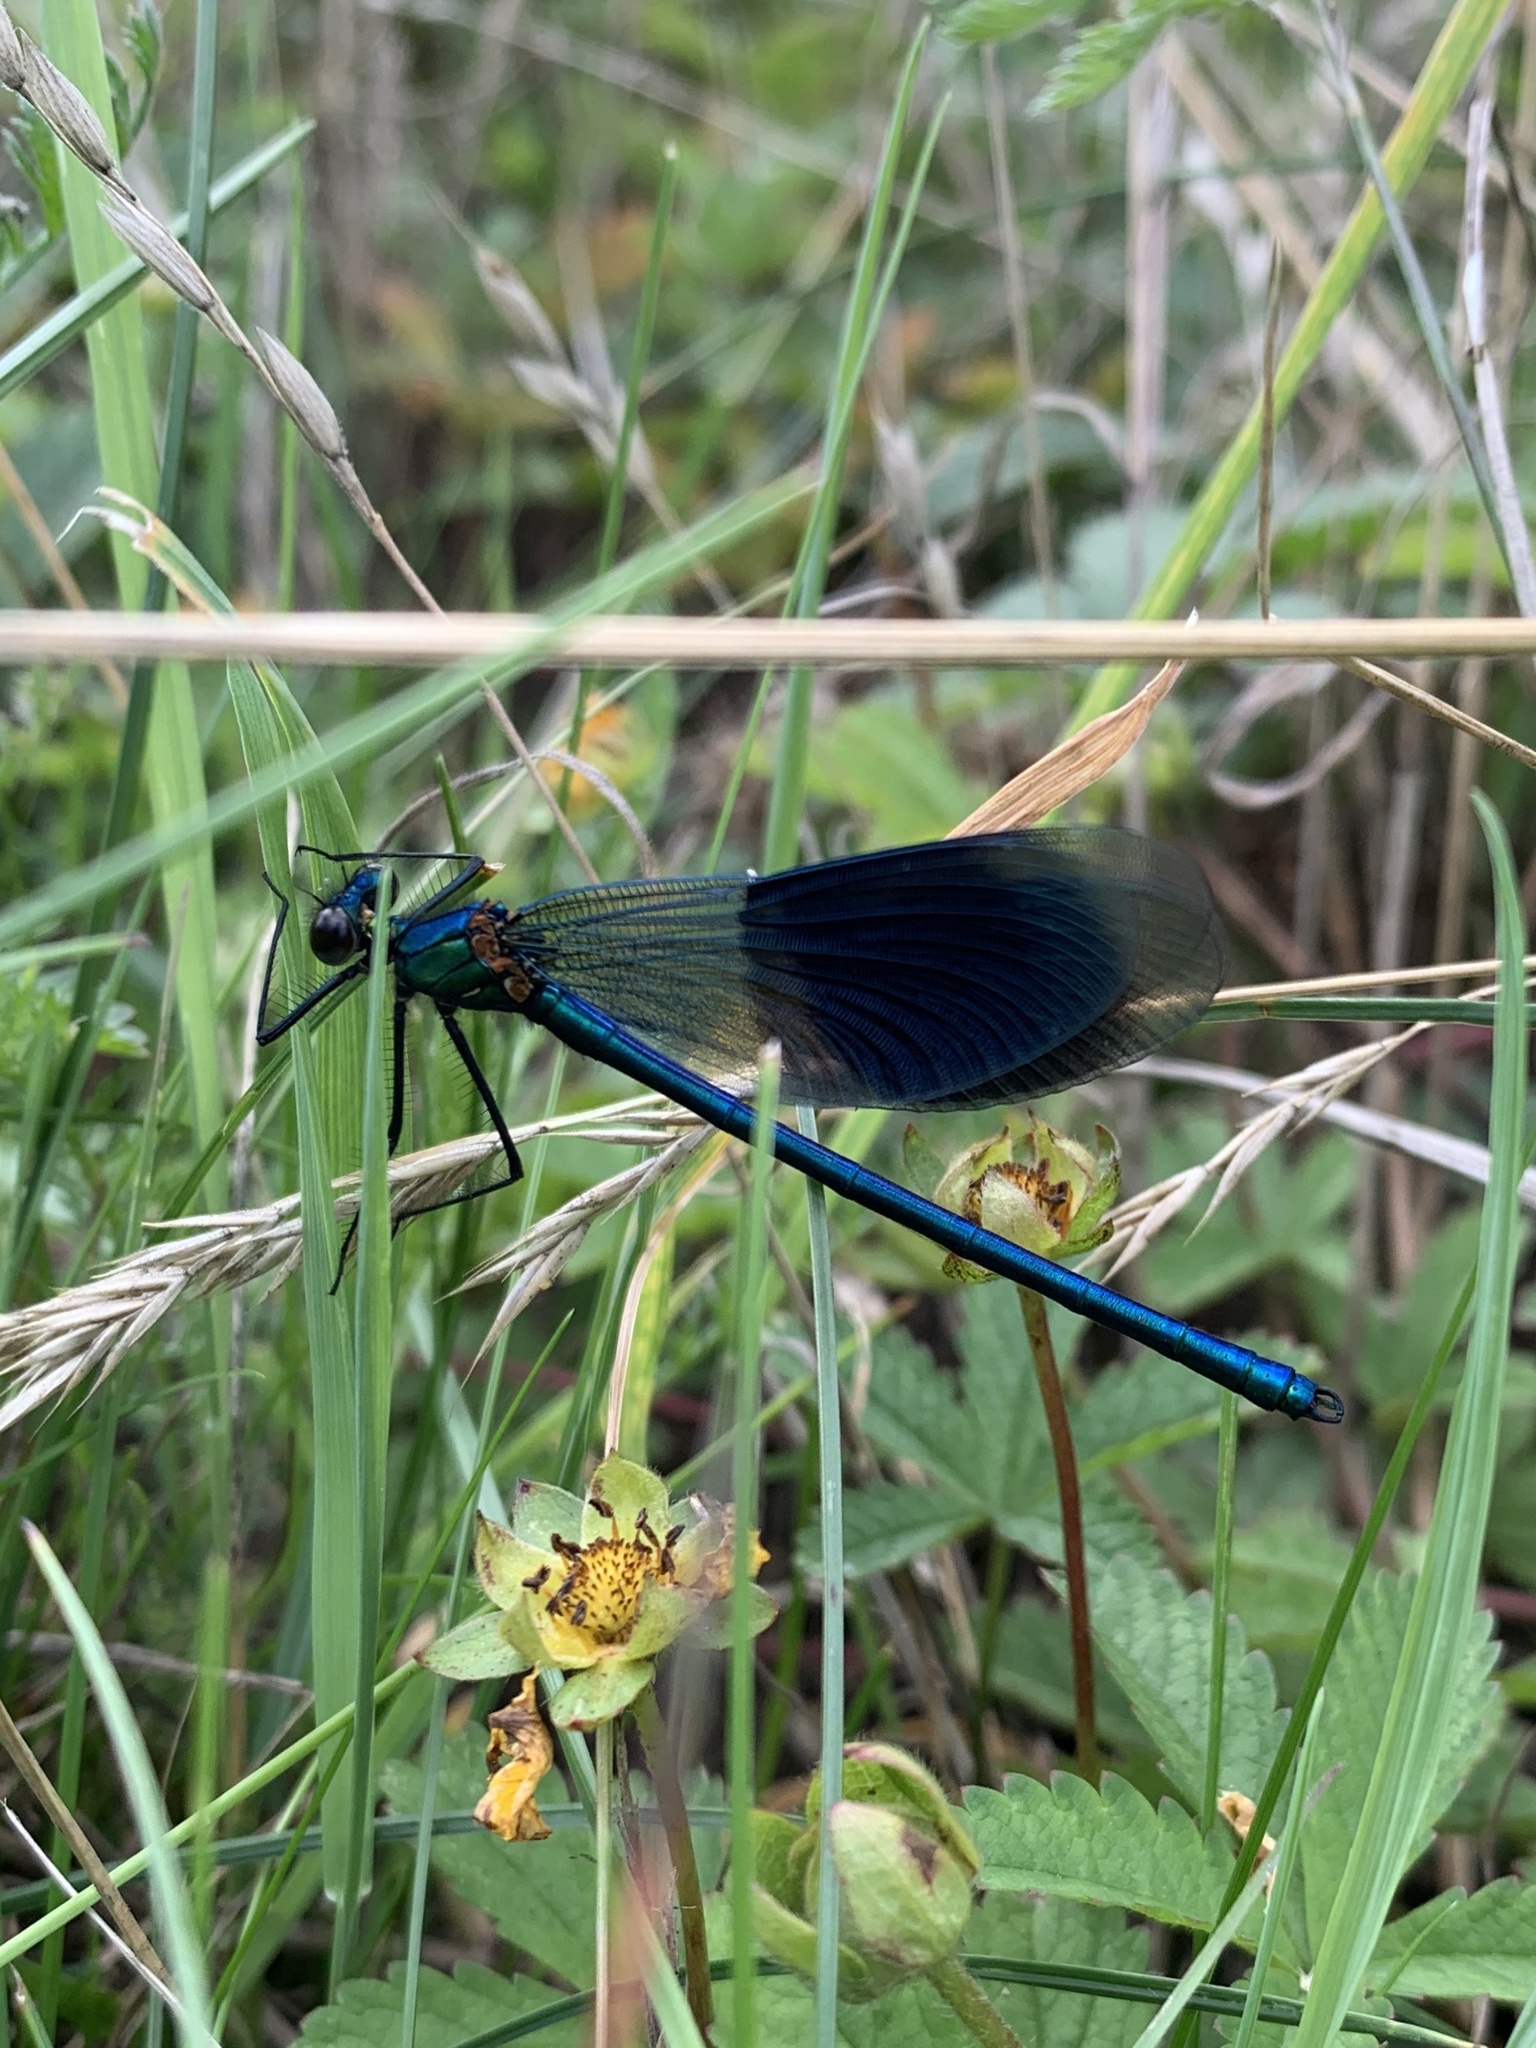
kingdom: Animalia
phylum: Arthropoda
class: Insecta
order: Odonata
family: Calopterygidae
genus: Calopteryx
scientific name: Calopteryx splendens
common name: Banded demoiselle
